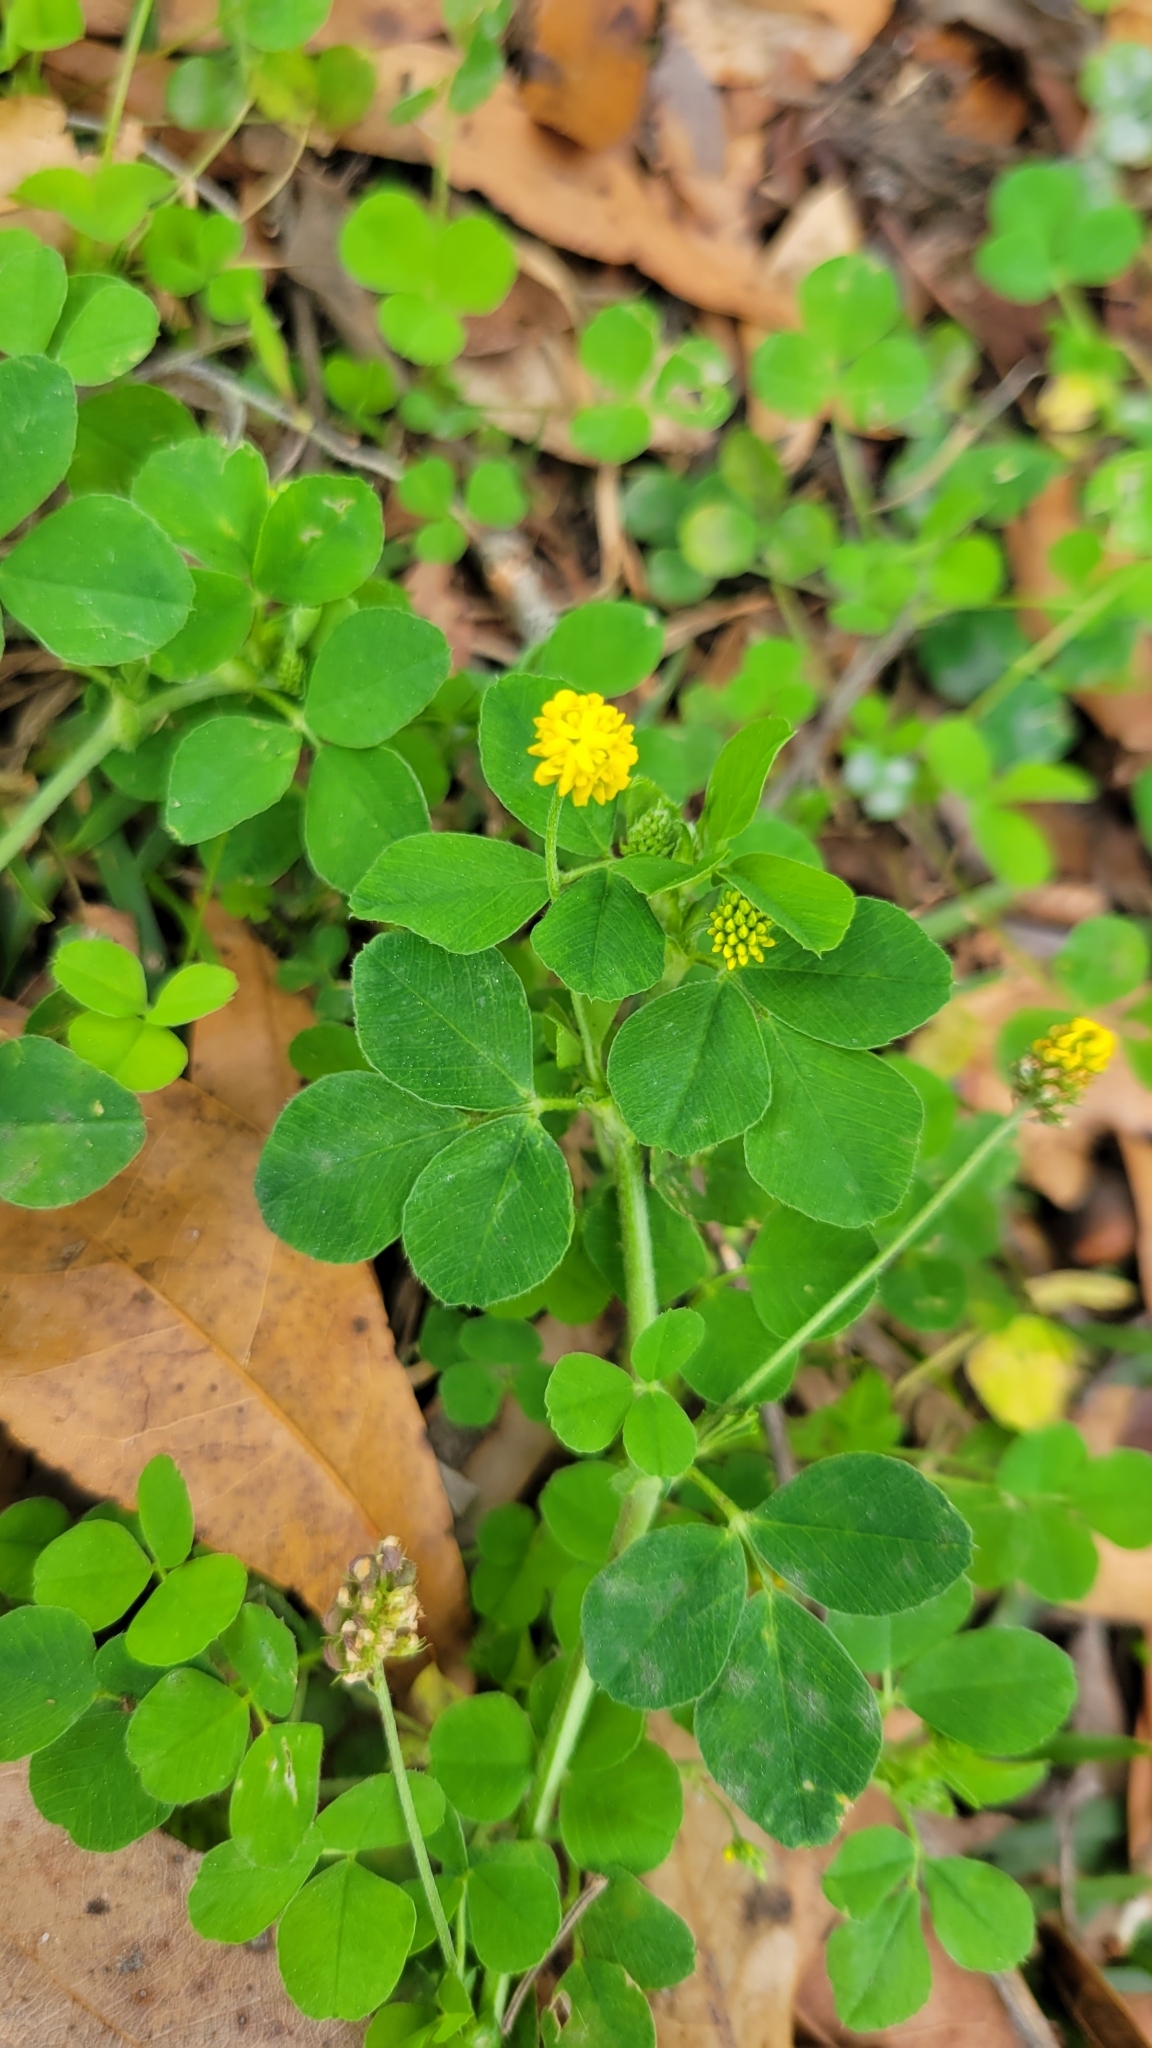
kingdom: Plantae
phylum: Tracheophyta
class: Magnoliopsida
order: Fabales
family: Fabaceae
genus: Medicago
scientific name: Medicago lupulina
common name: Black medick
